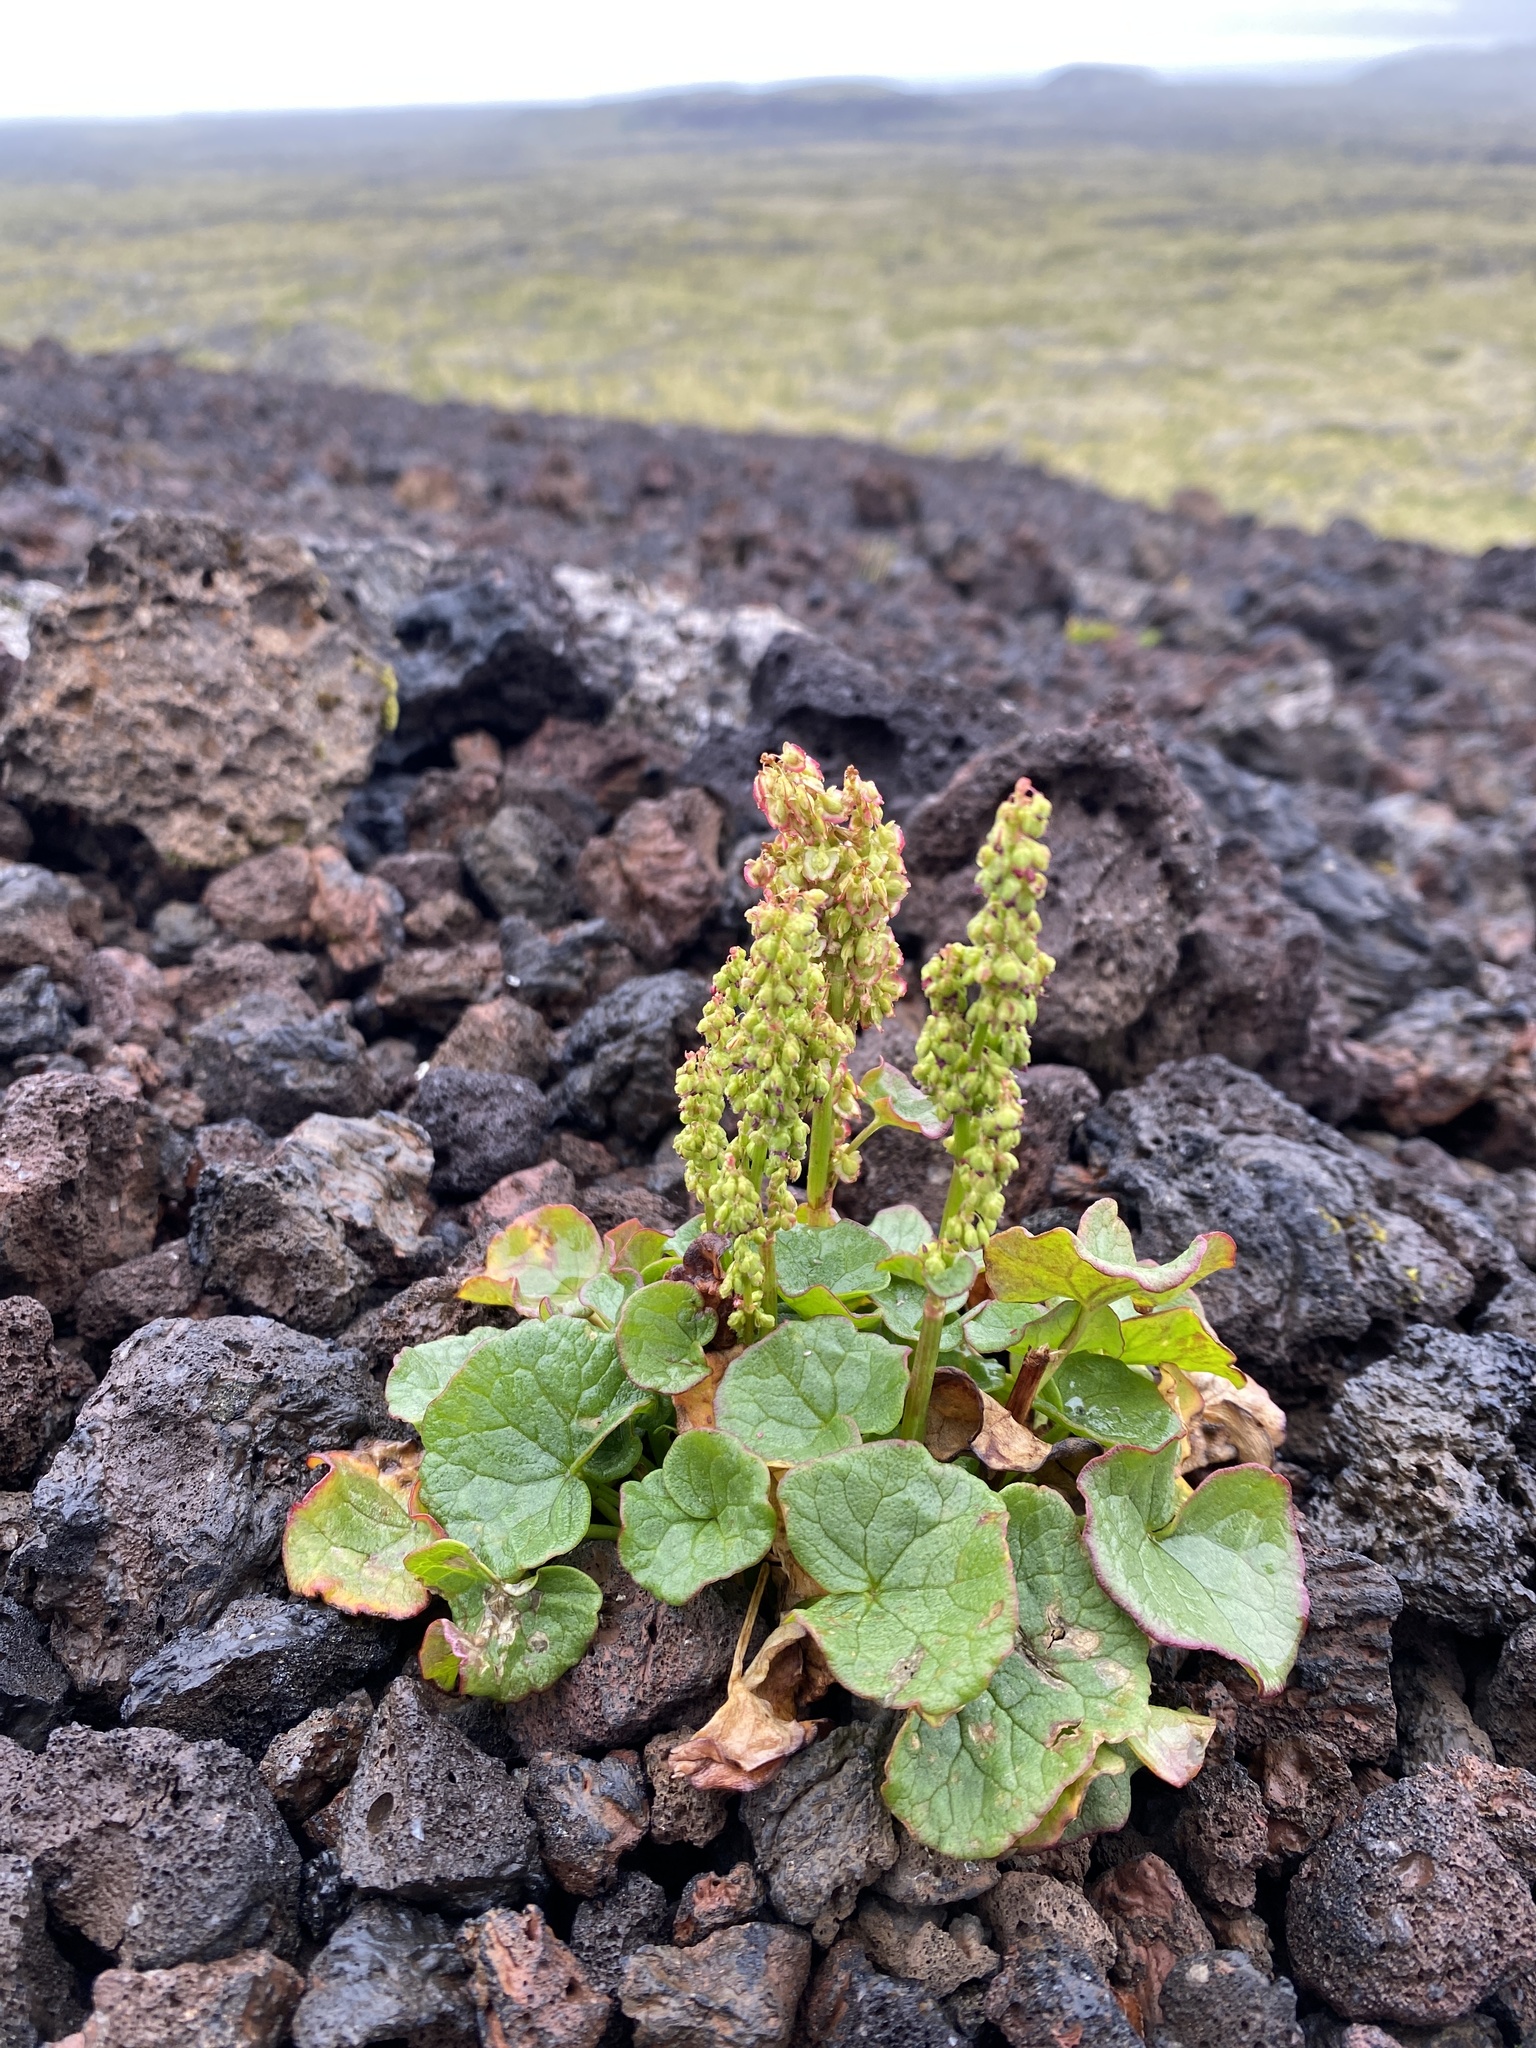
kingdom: Plantae
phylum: Tracheophyta
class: Magnoliopsida
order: Caryophyllales
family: Polygonaceae
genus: Oxyria
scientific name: Oxyria digyna
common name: Alpine mountain-sorrel
